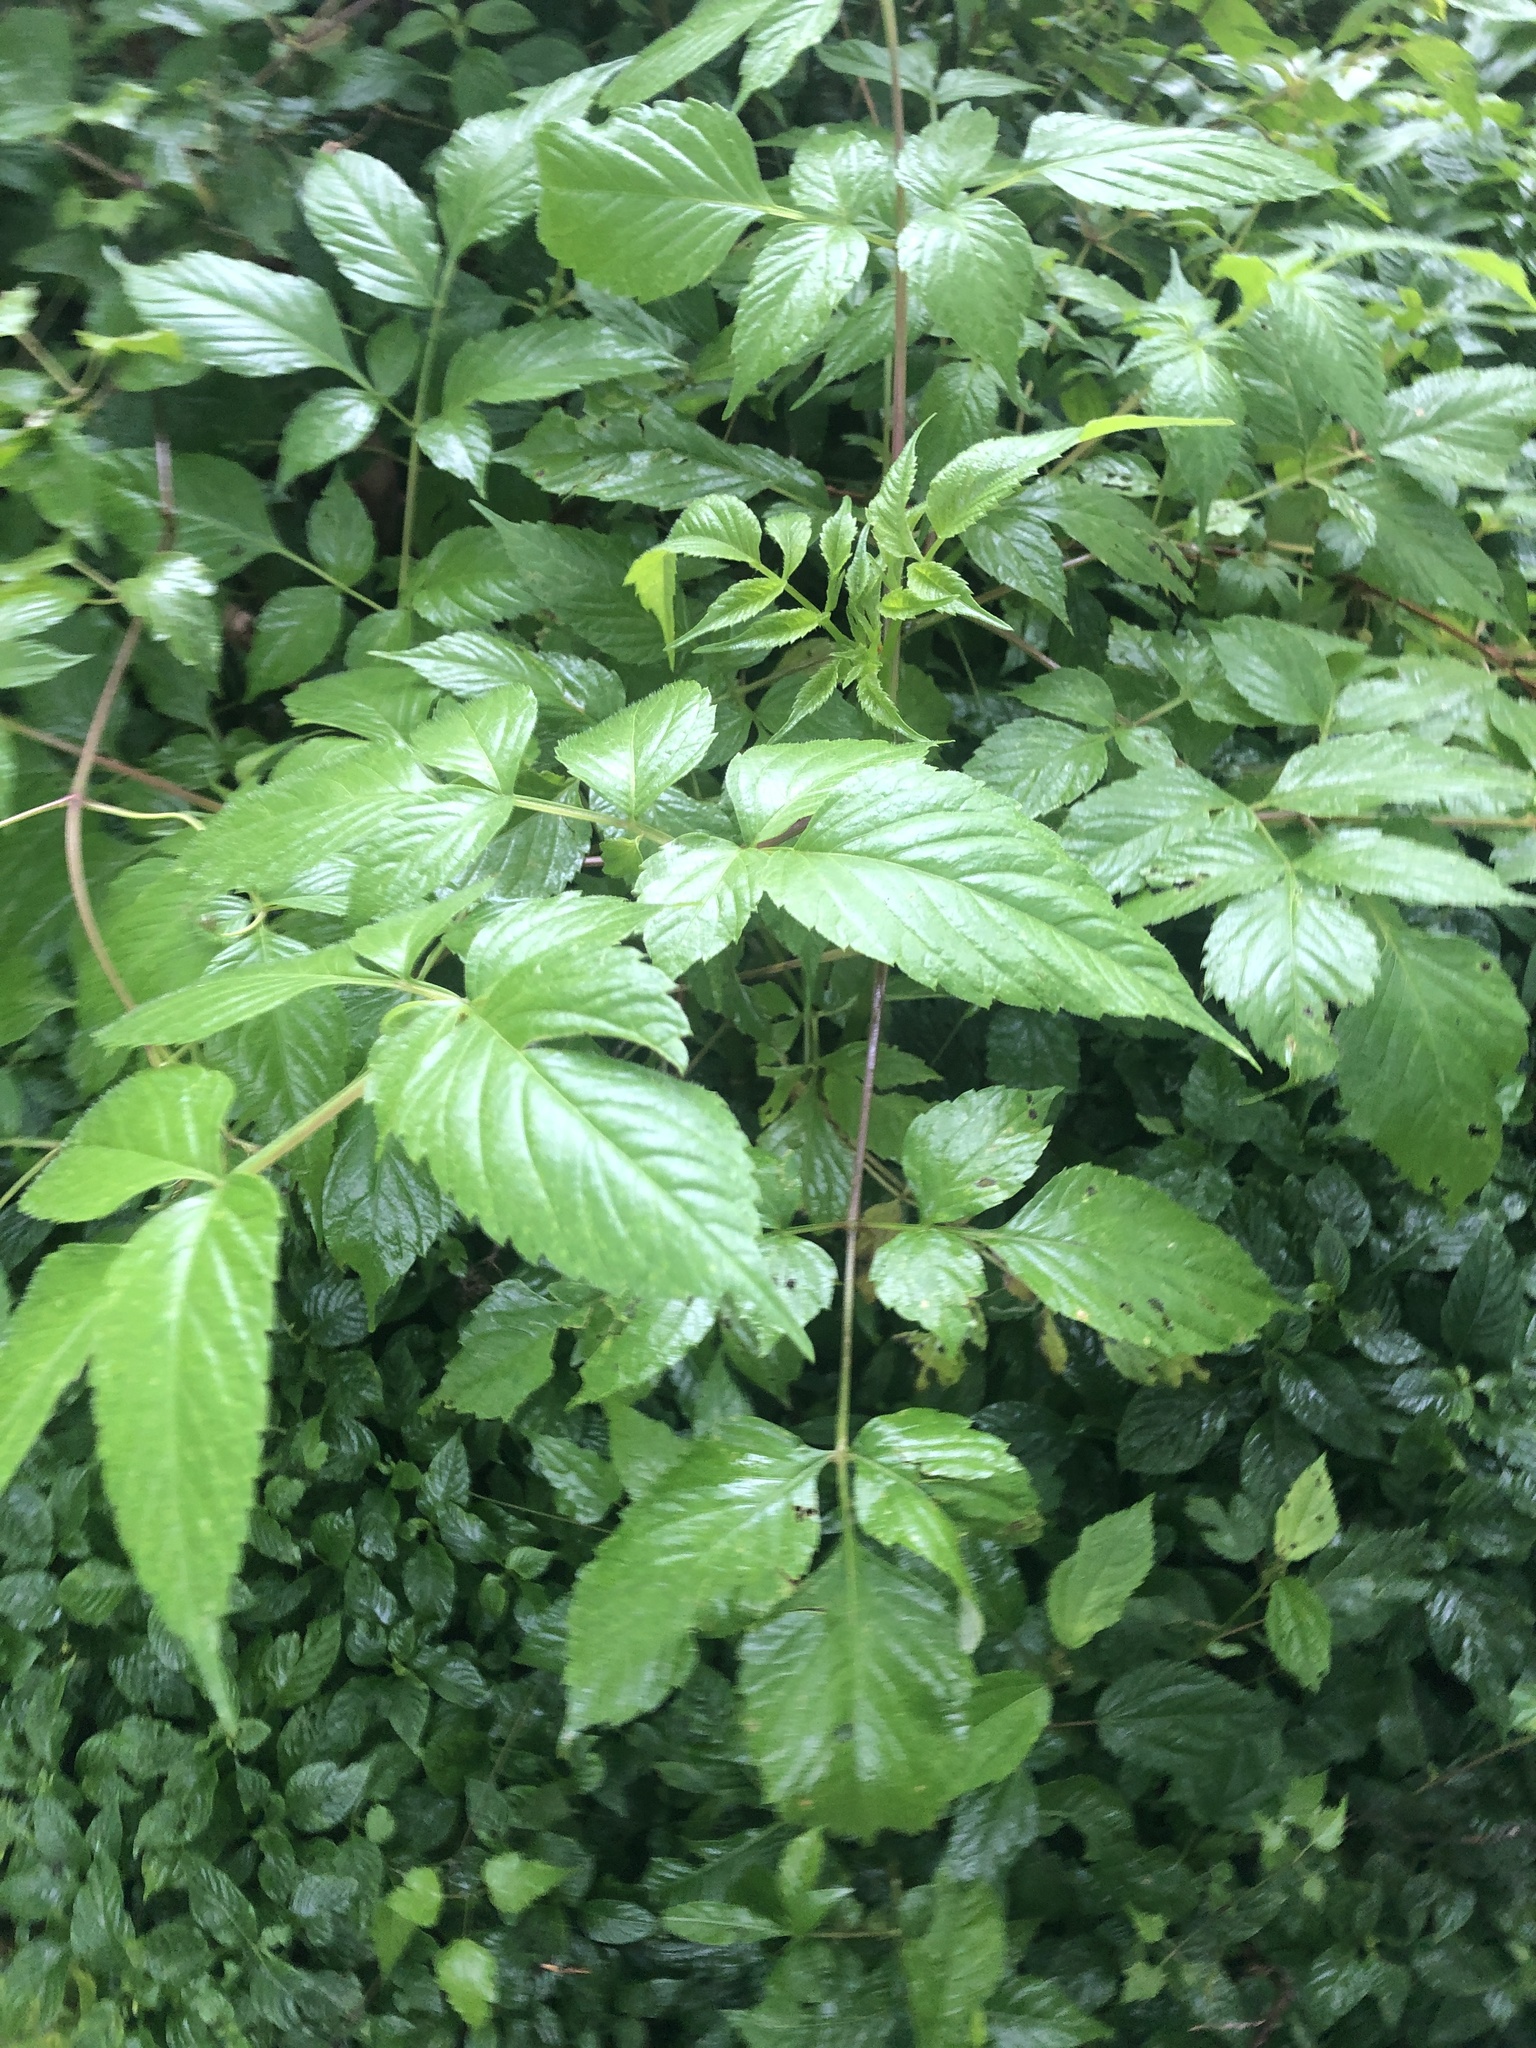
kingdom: Plantae
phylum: Tracheophyta
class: Magnoliopsida
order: Asterales
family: Asteraceae
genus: Dahlia
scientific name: Dahlia imperialis
